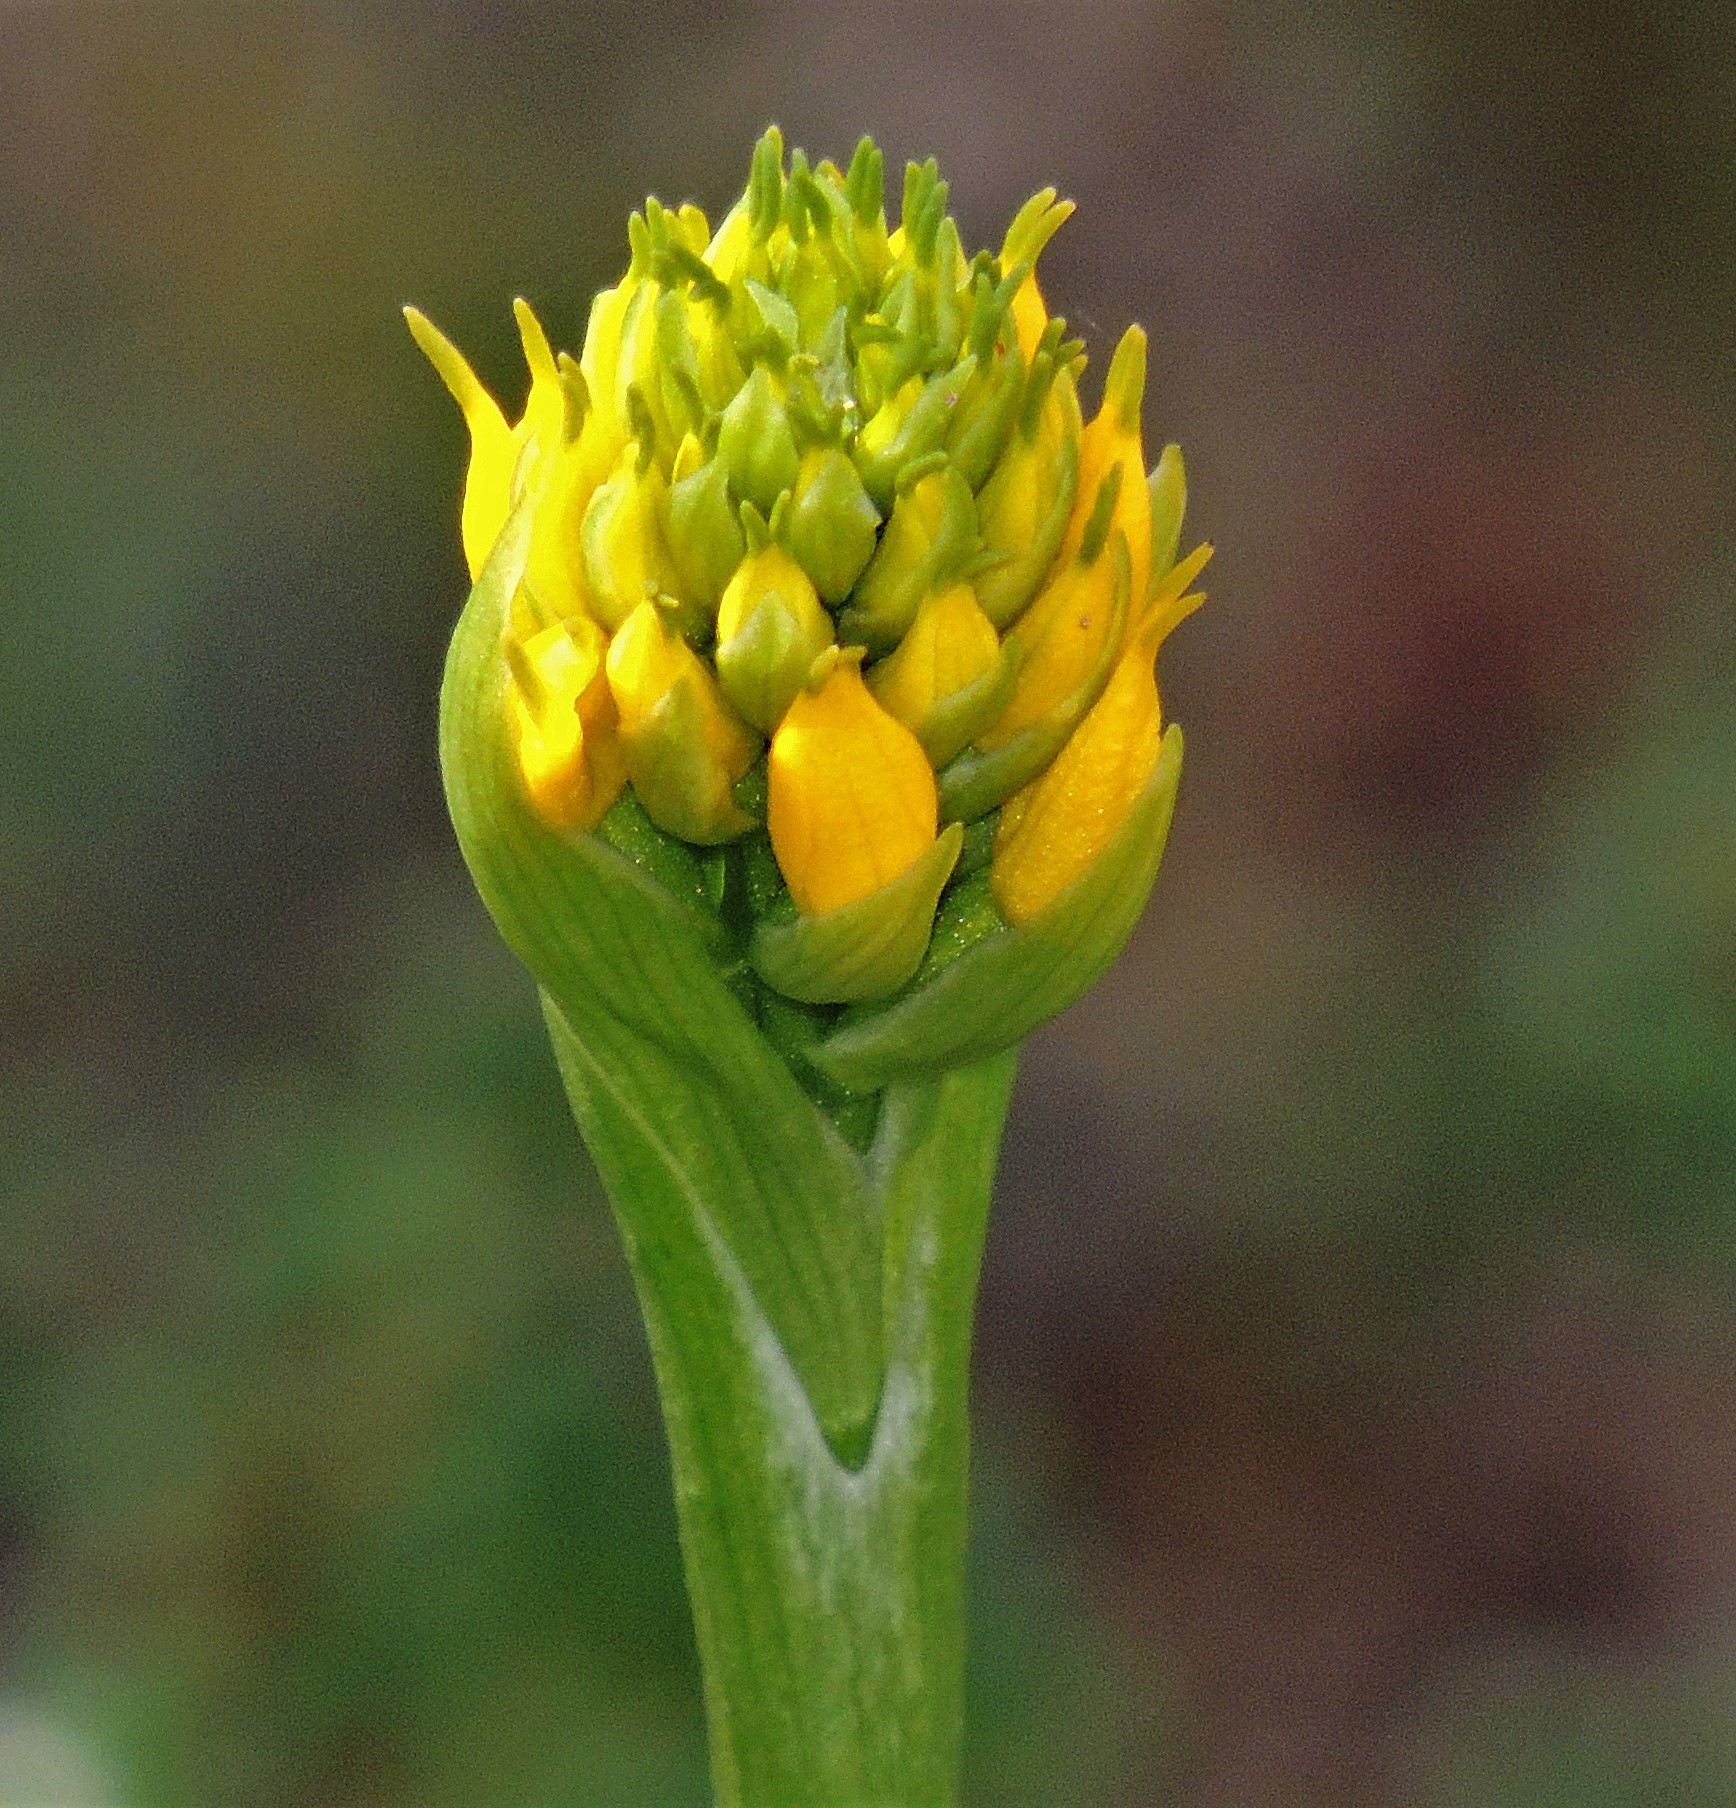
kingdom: Plantae
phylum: Tracheophyta
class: Liliopsida
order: Asparagales
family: Orchidaceae
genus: Gavilea
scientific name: Gavilea lutea
